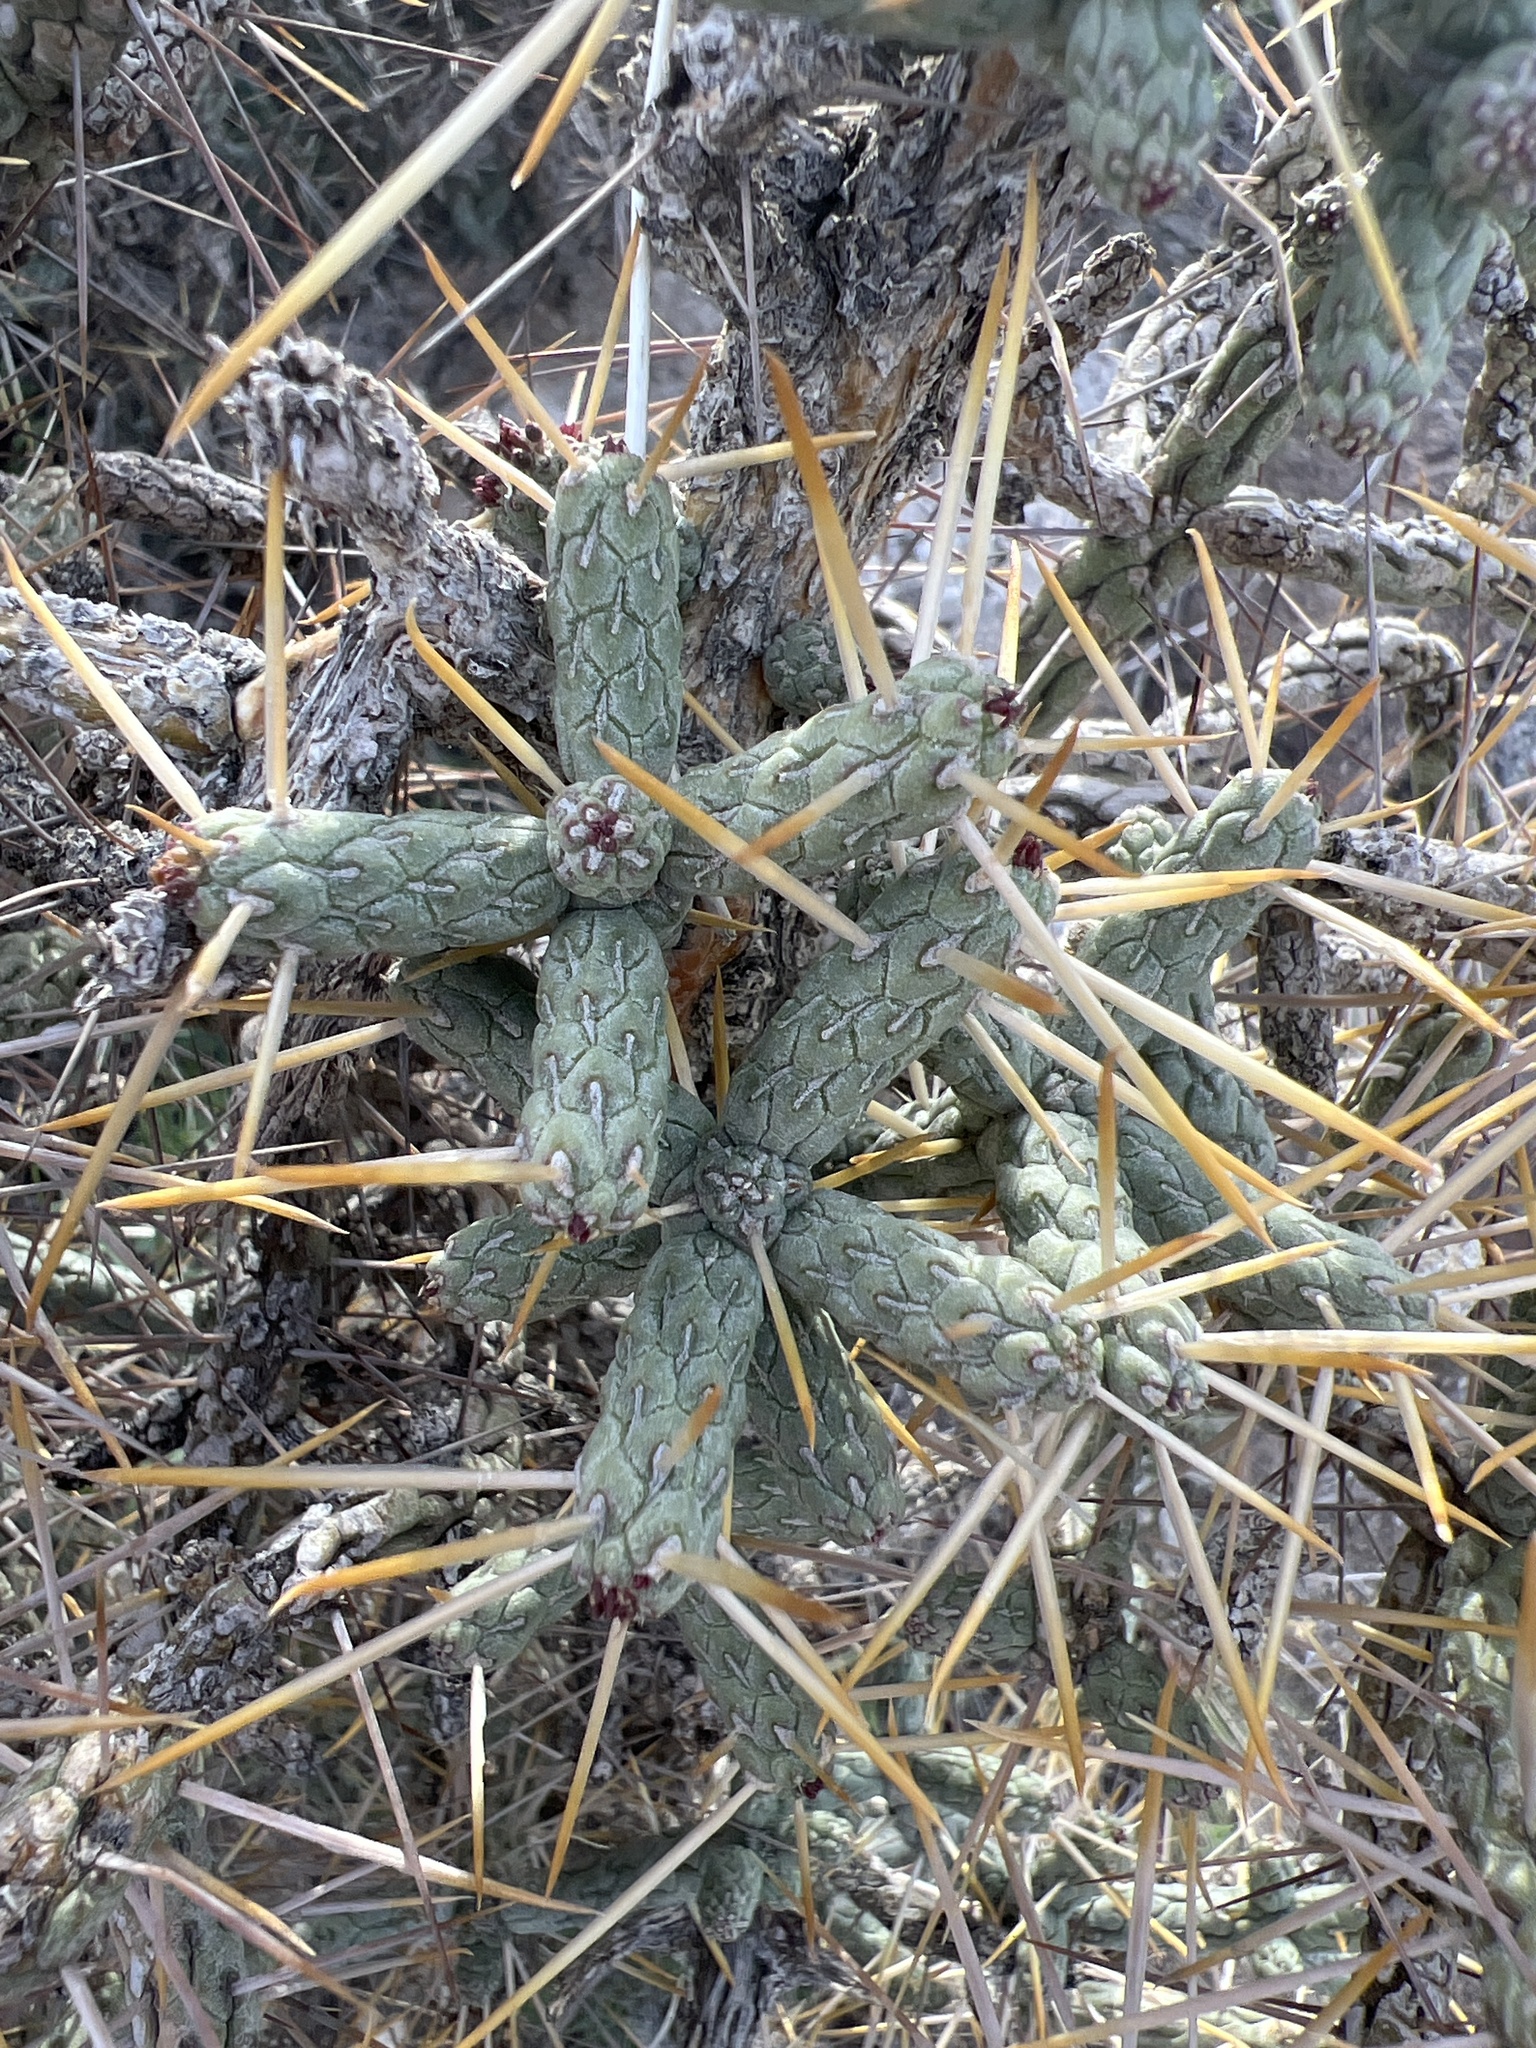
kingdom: Plantae
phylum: Tracheophyta
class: Magnoliopsida
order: Caryophyllales
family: Cactaceae
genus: Cylindropuntia
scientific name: Cylindropuntia ramosissima
